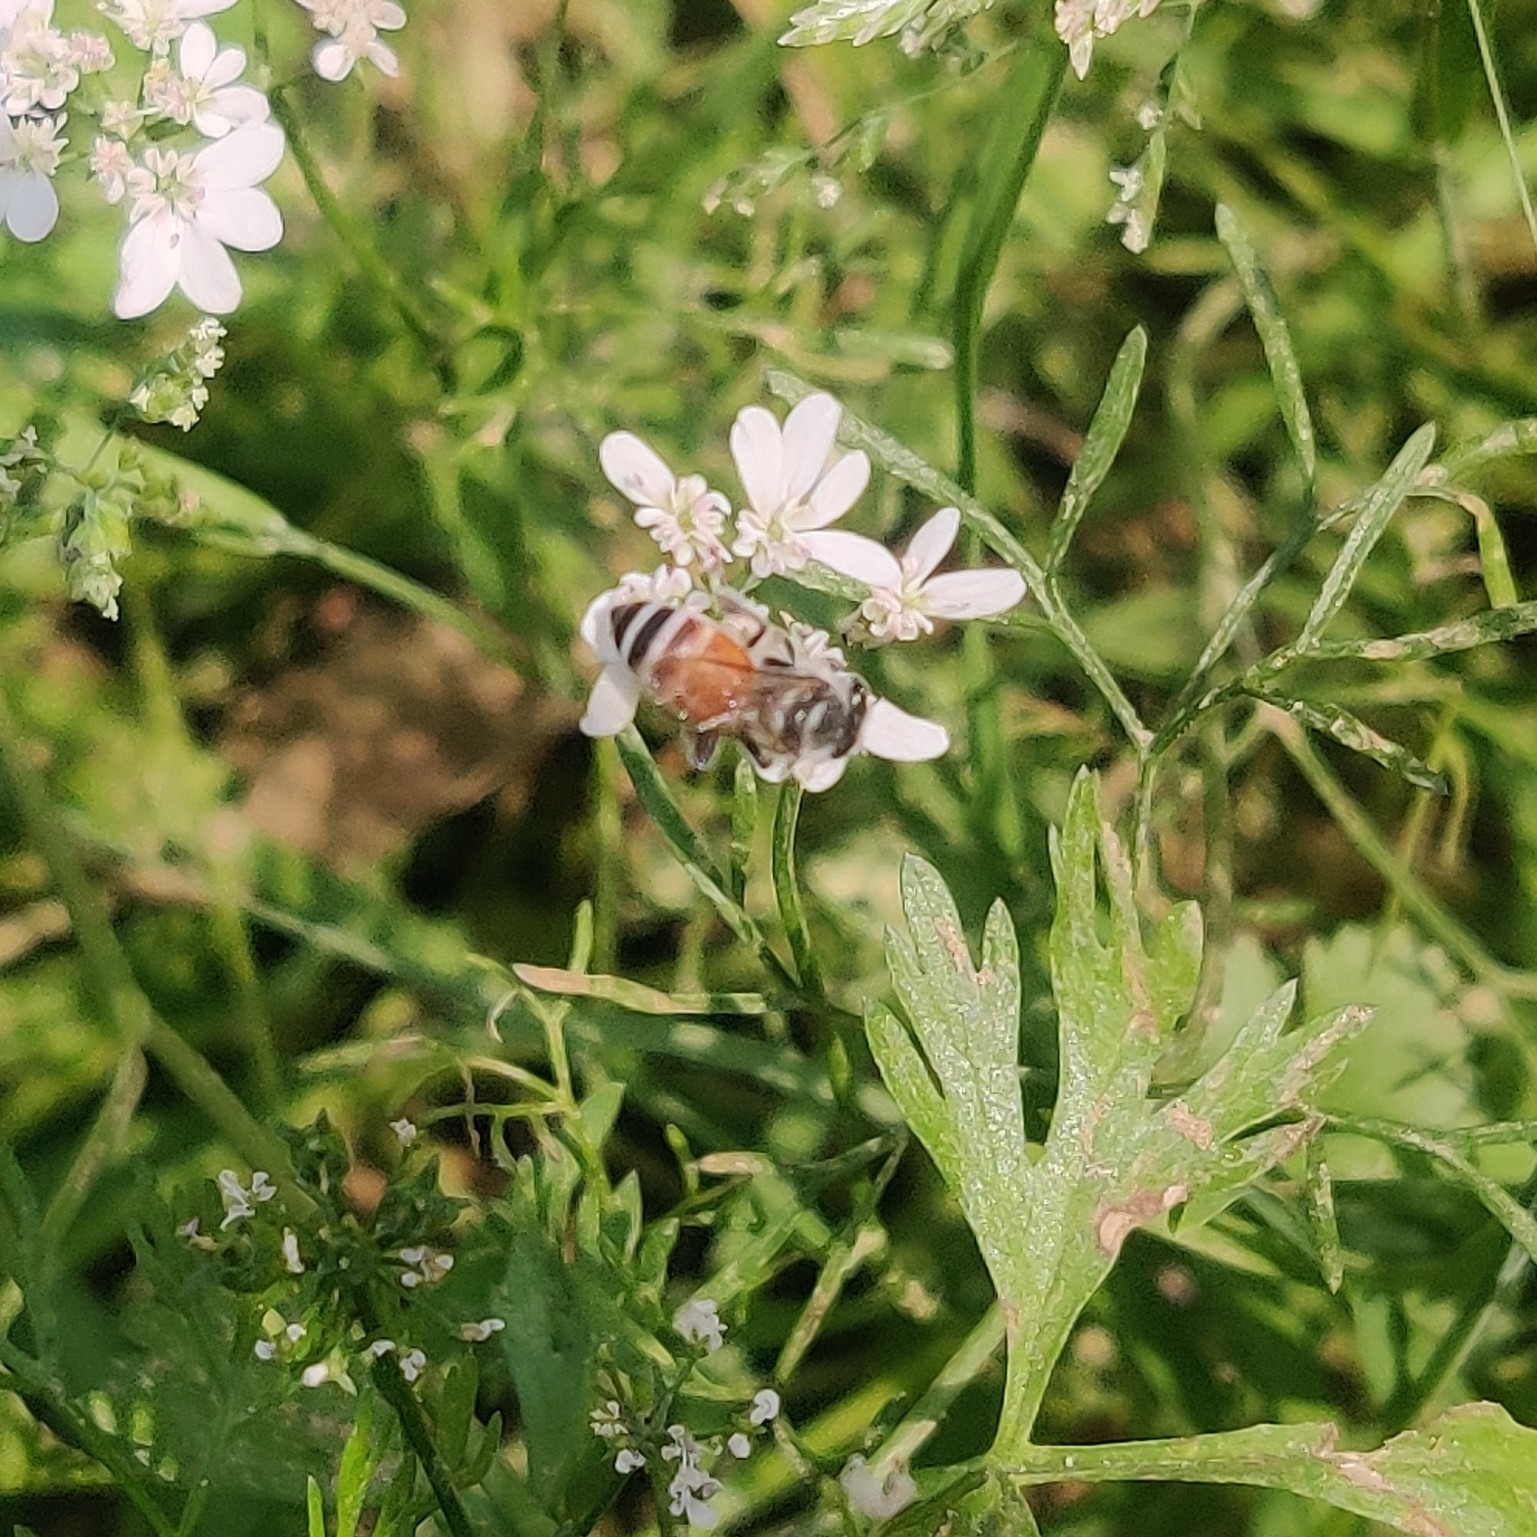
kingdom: Animalia
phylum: Arthropoda
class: Insecta
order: Hymenoptera
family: Apidae
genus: Apis
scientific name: Apis florea
